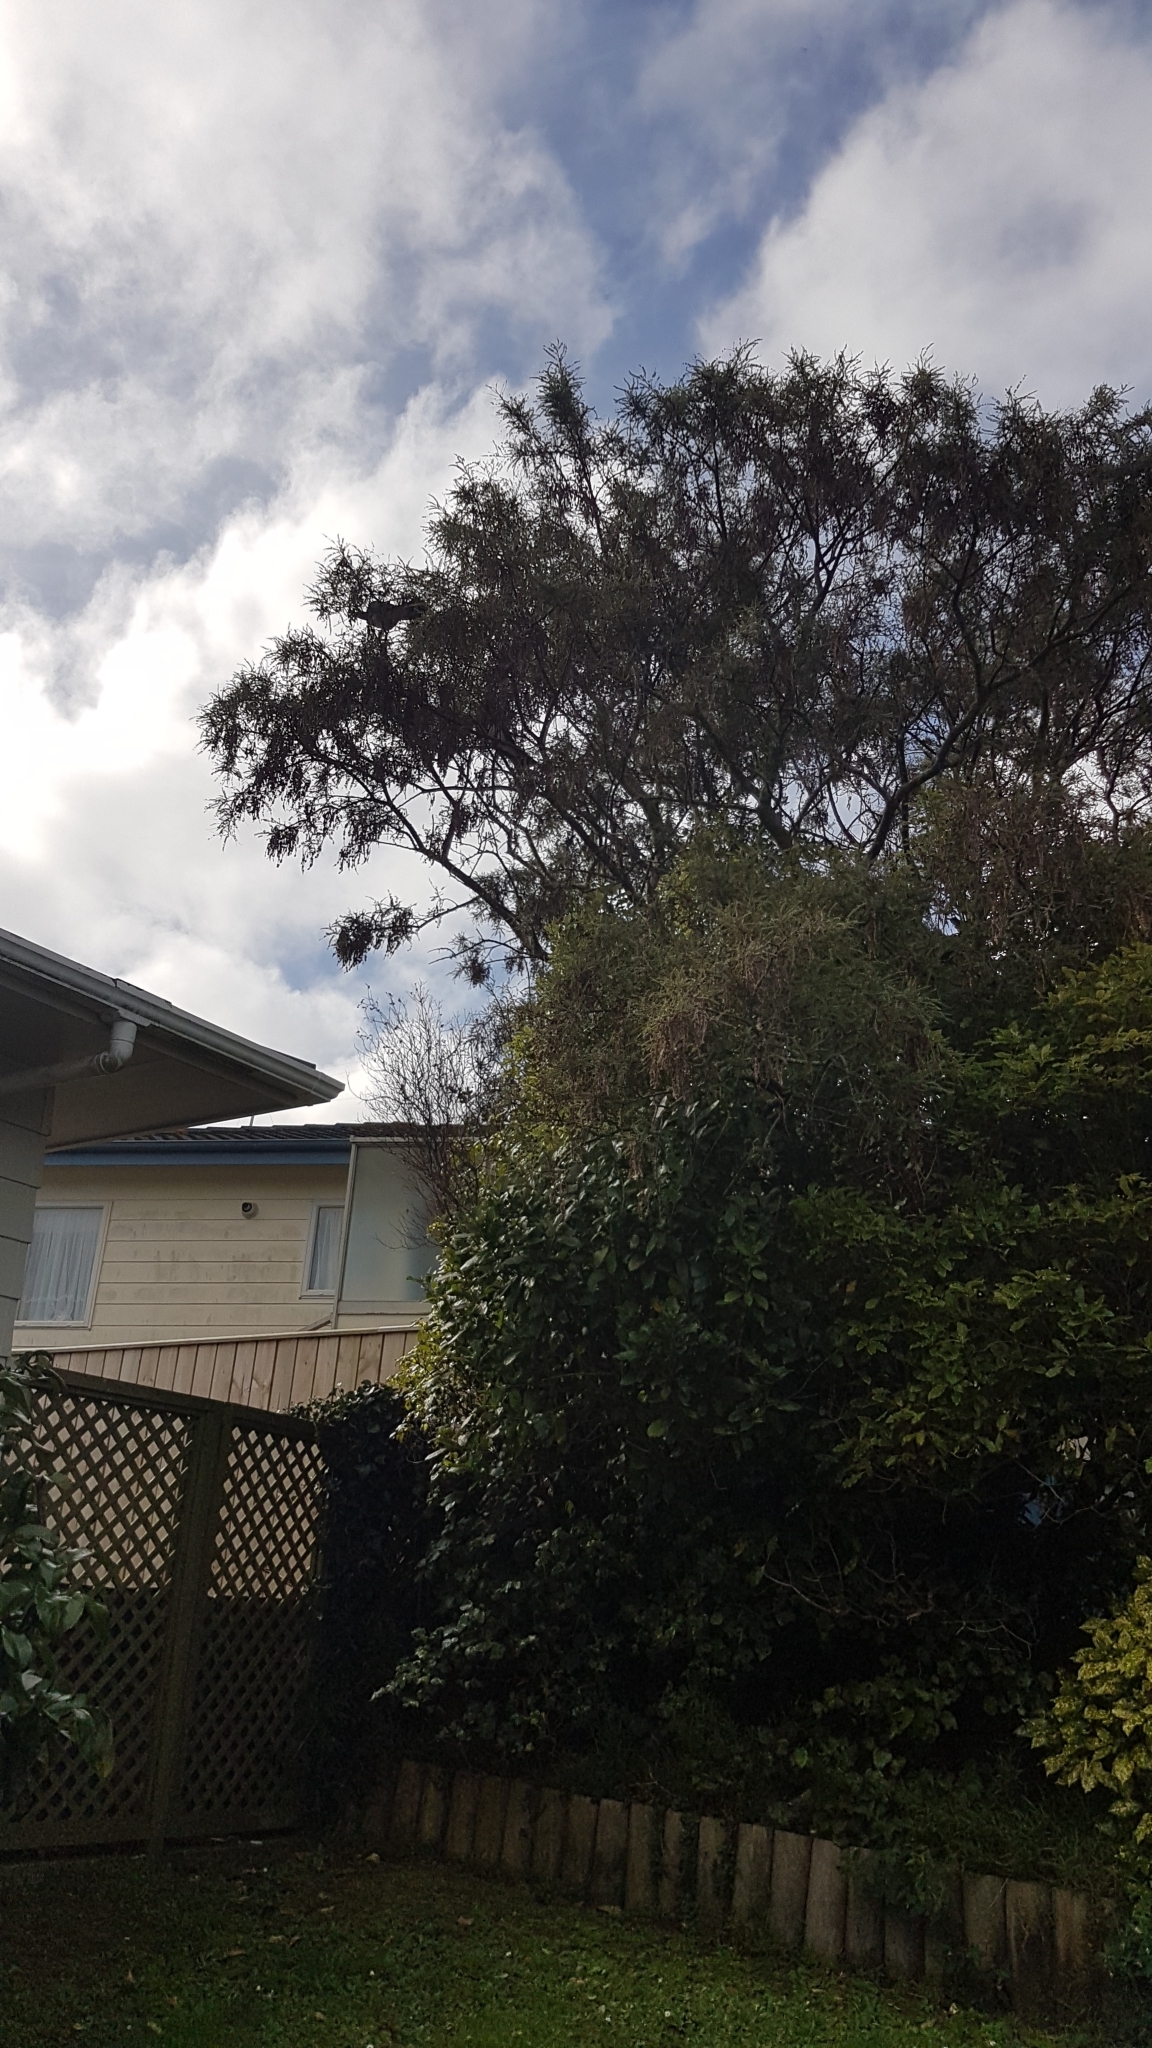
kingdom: Animalia
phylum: Chordata
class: Aves
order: Columbiformes
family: Columbidae
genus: Hemiphaga
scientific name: Hemiphaga novaeseelandiae
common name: New zealand pigeon
